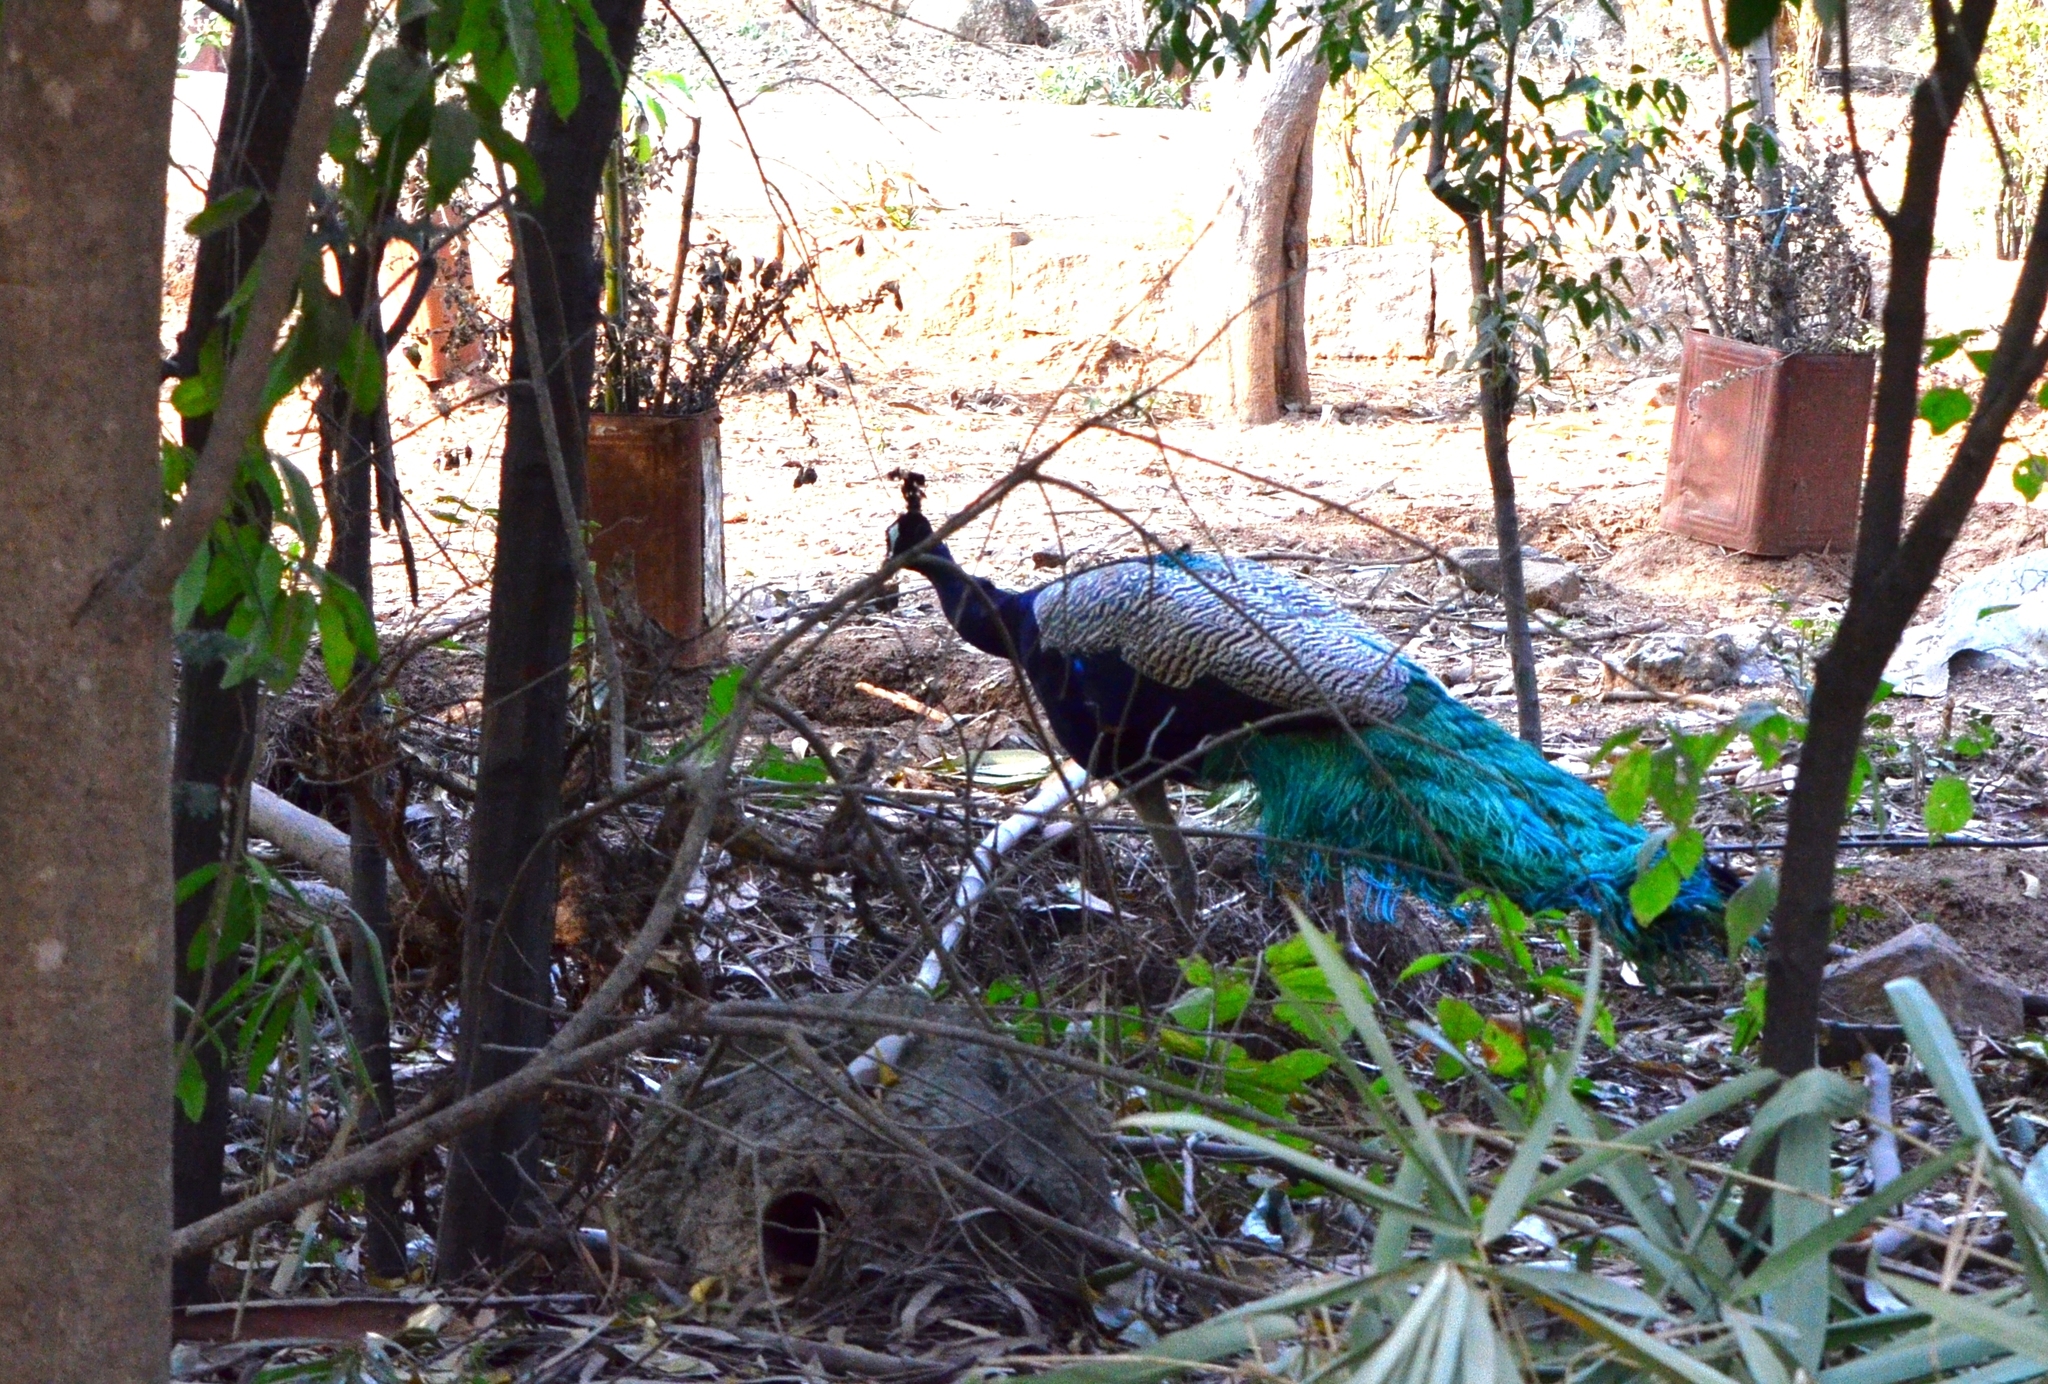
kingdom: Animalia
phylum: Chordata
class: Aves
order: Galliformes
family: Phasianidae
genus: Pavo
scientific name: Pavo cristatus
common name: Indian peafowl
